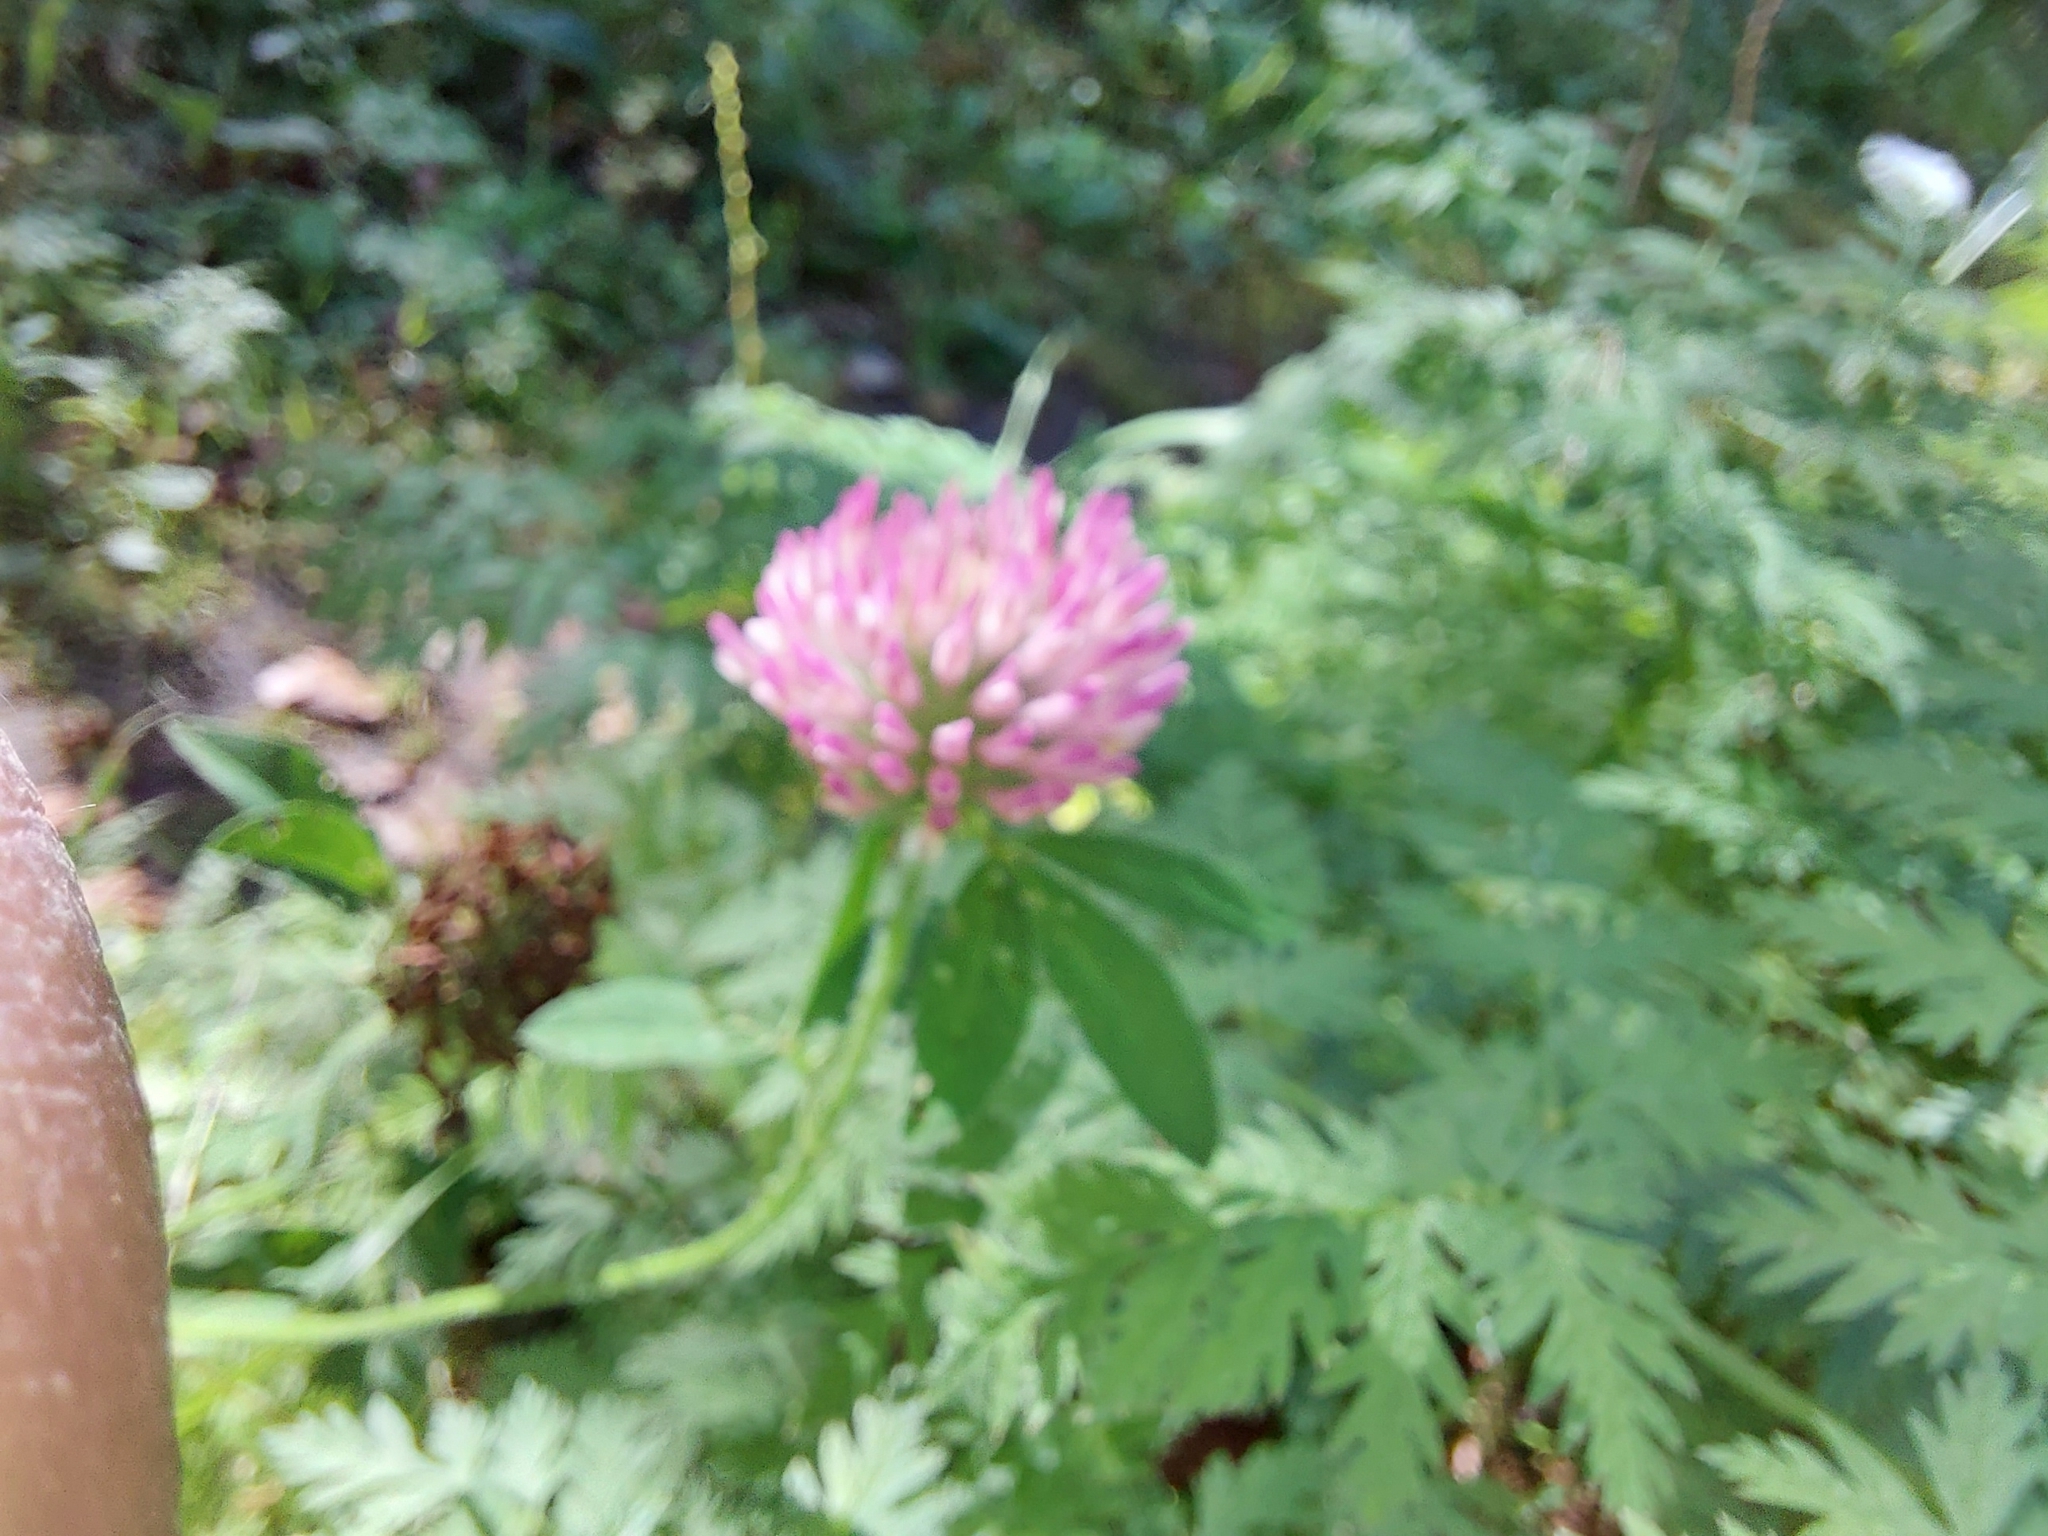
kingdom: Plantae
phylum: Tracheophyta
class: Magnoliopsida
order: Fabales
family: Fabaceae
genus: Trifolium
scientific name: Trifolium pratense
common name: Red clover
